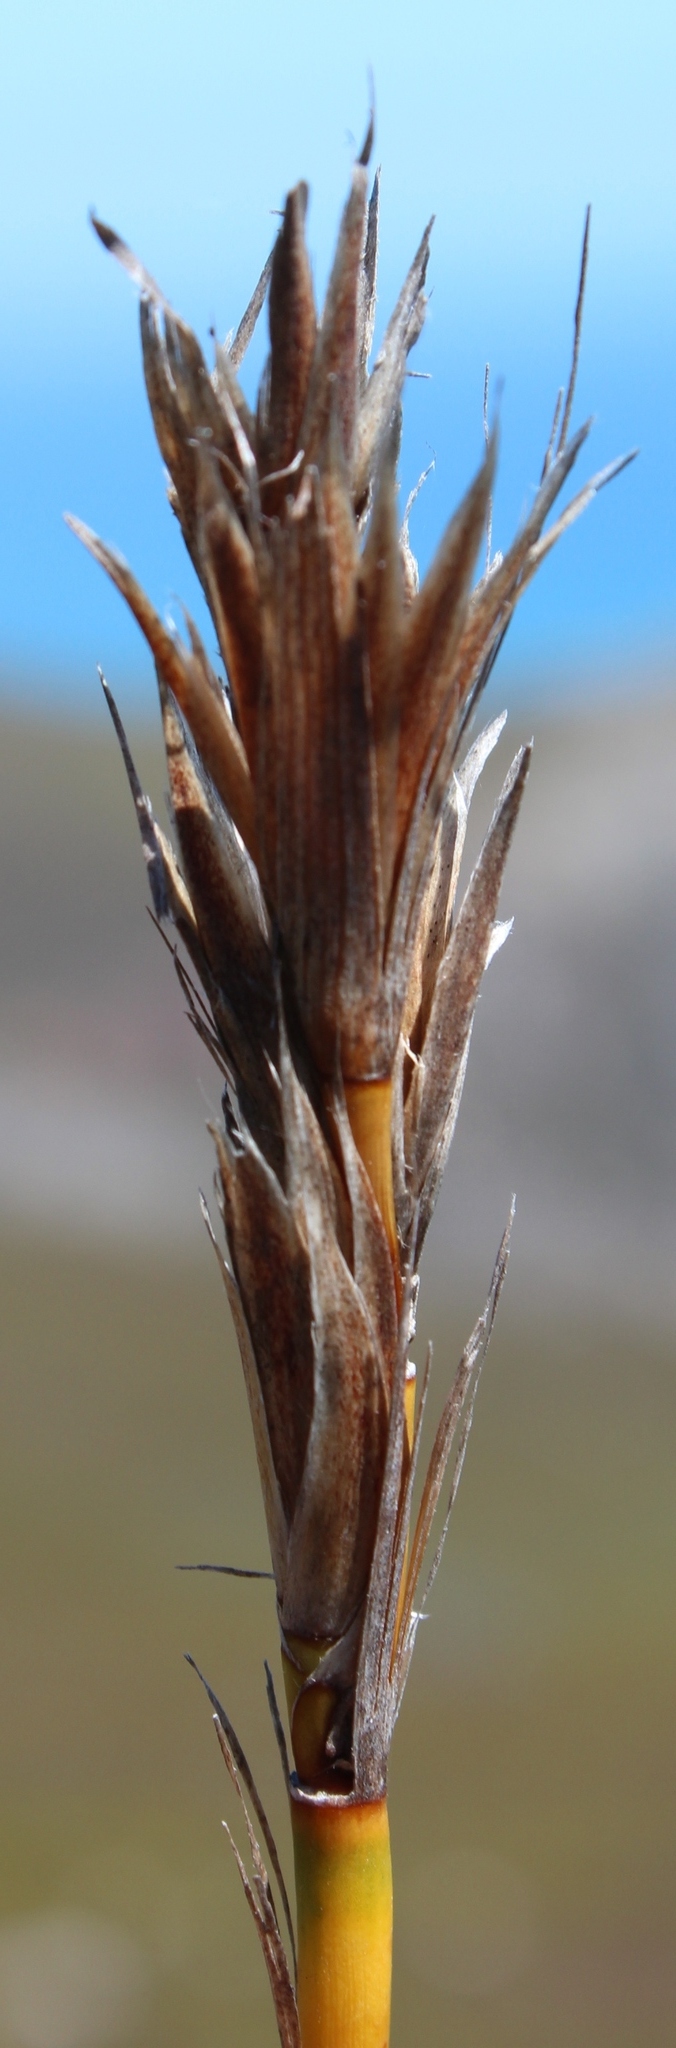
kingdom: Plantae
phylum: Tracheophyta
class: Liliopsida
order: Poales
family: Restionaceae
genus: Ceratocaryum
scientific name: Ceratocaryum caespitosum
